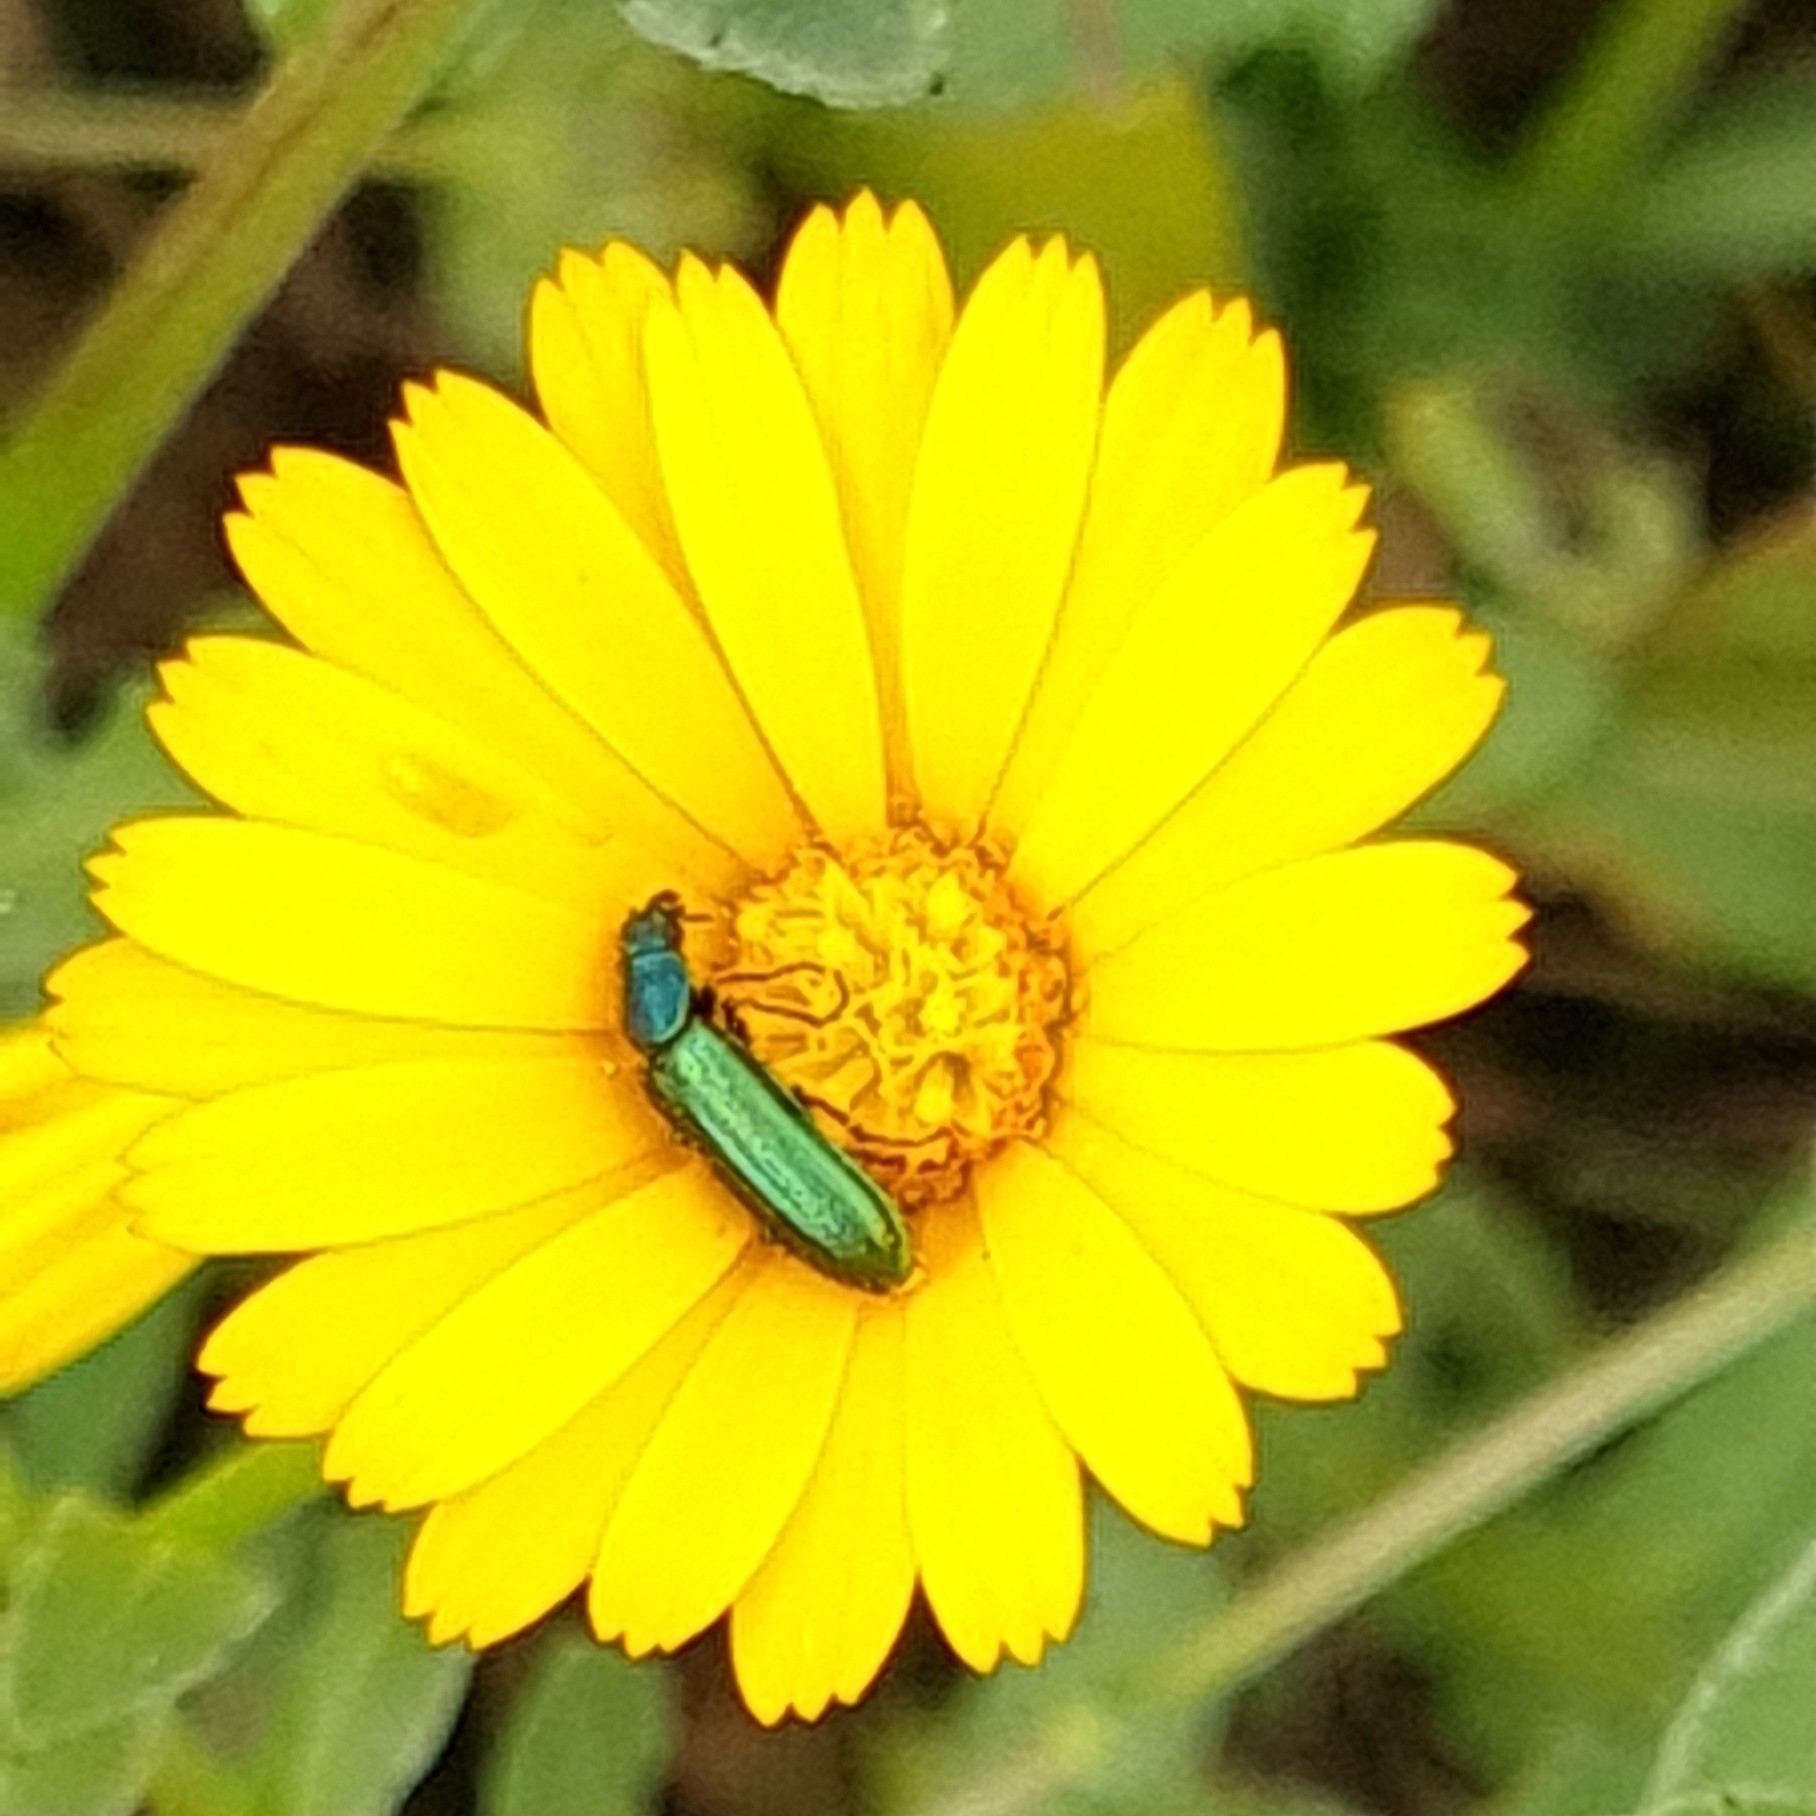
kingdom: Animalia
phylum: Arthropoda
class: Insecta
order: Coleoptera
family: Dasytidae
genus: Psilothrix
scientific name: Psilothrix viridicoerulea
